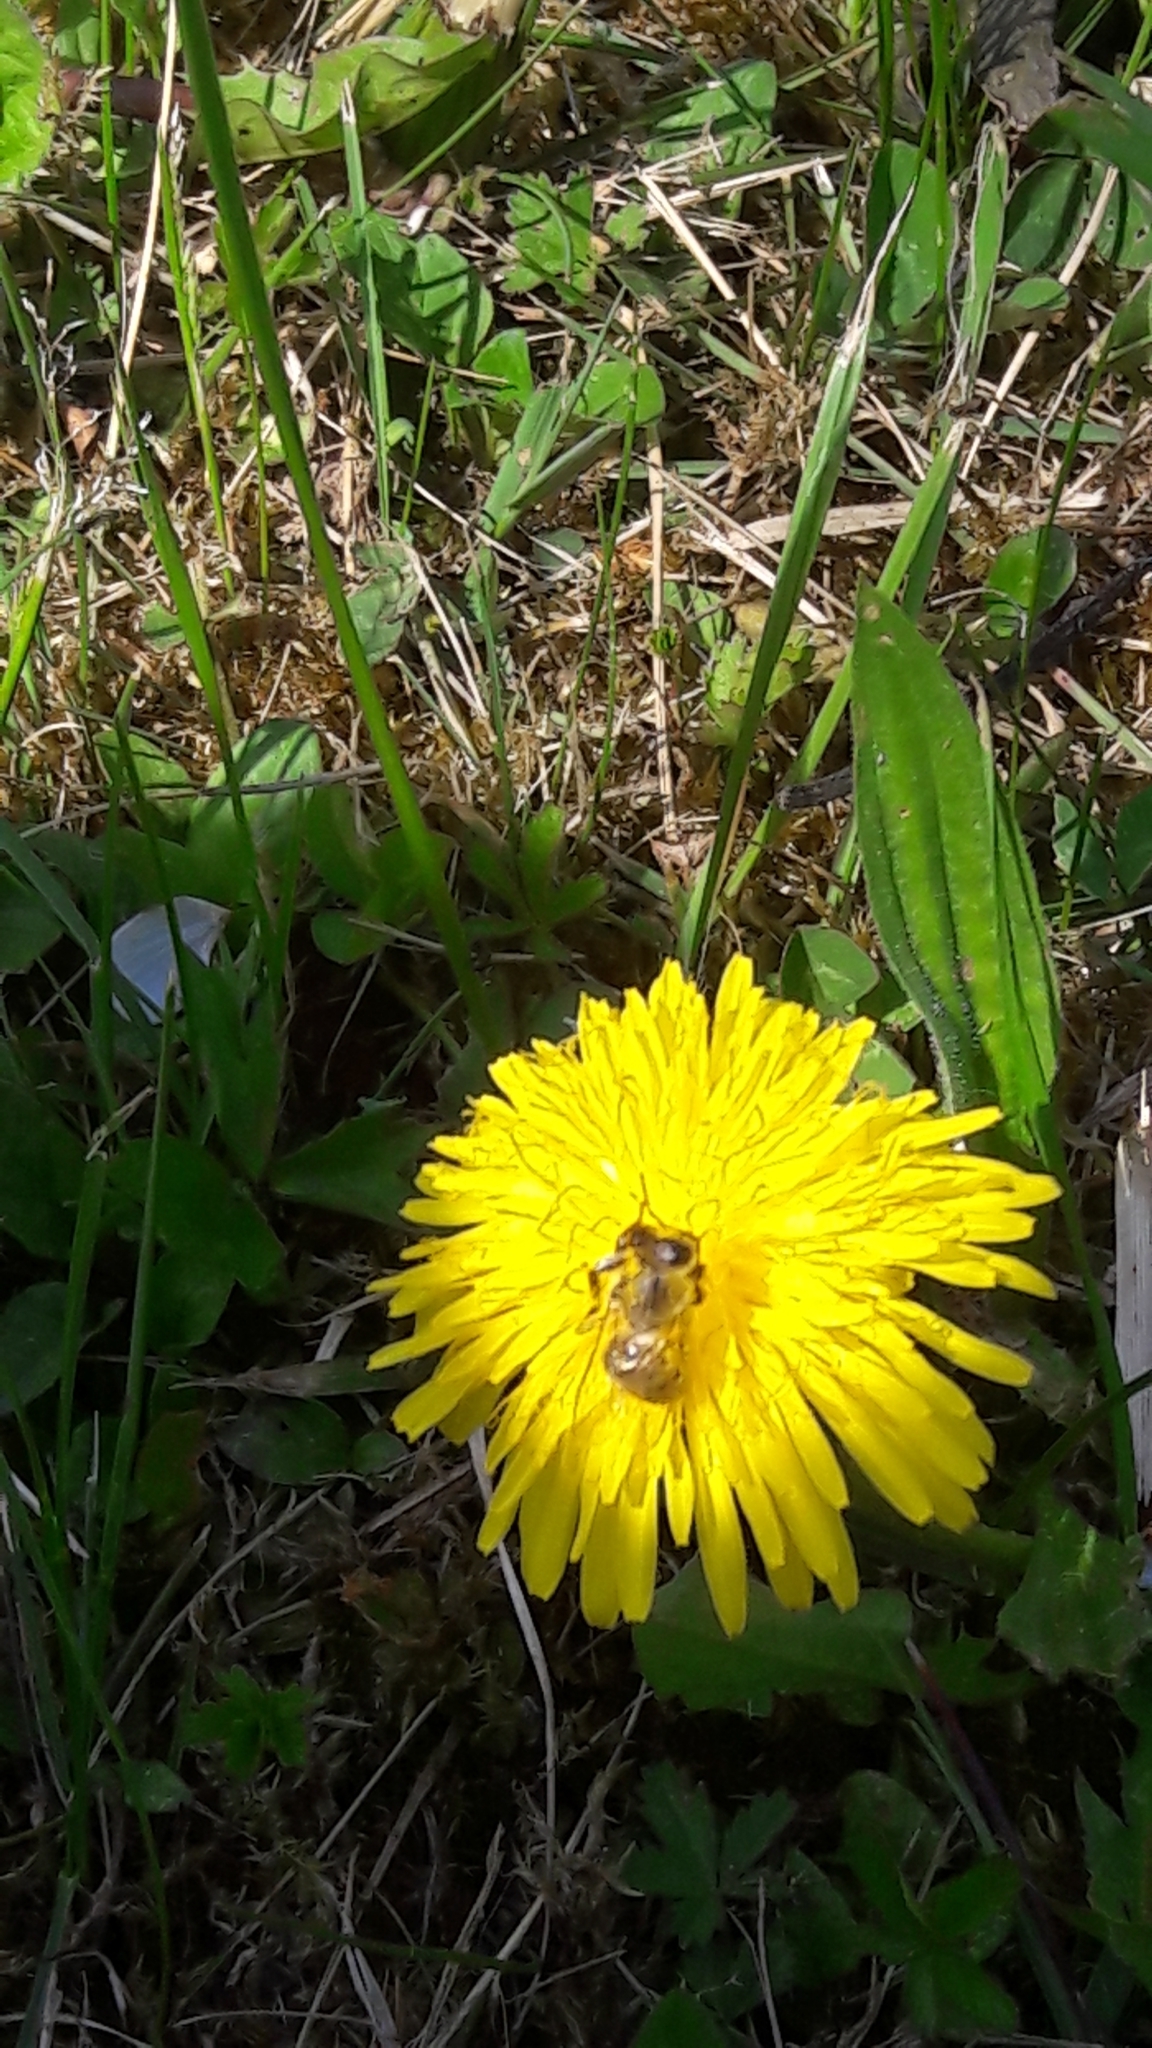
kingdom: Animalia
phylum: Arthropoda
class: Insecta
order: Hymenoptera
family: Apidae
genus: Apis
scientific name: Apis mellifera
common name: Honey bee
